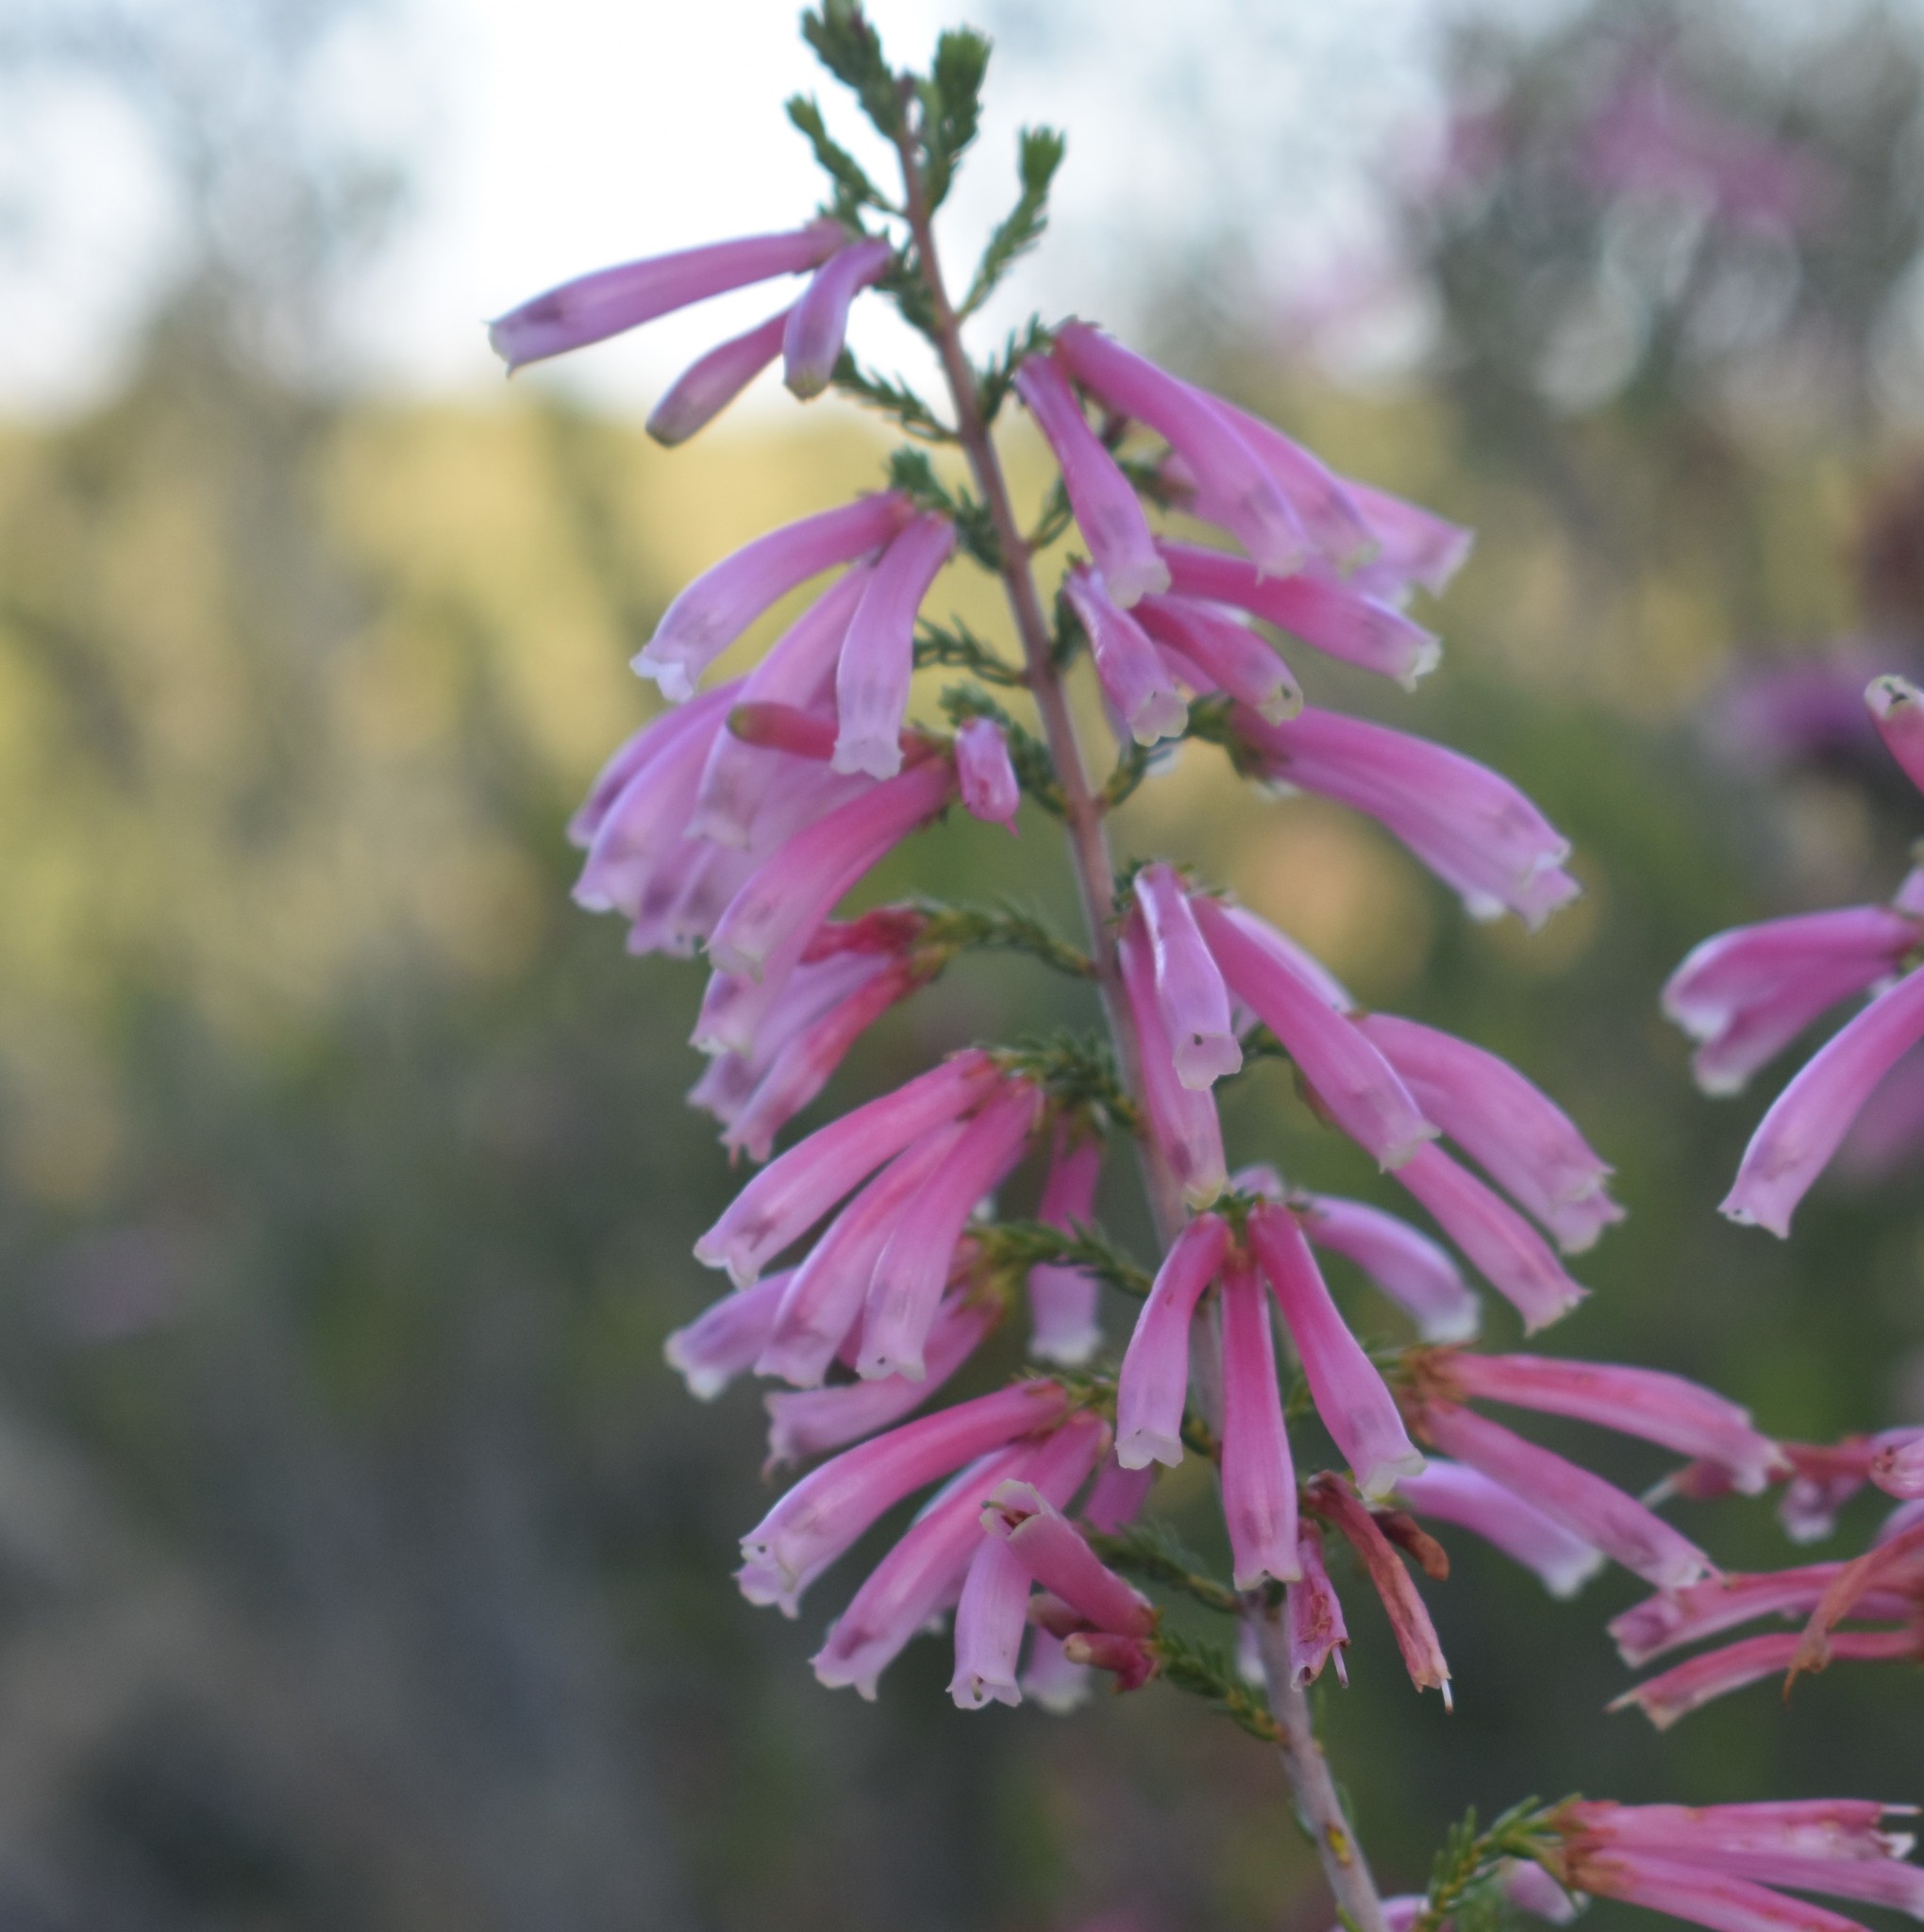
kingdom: Plantae
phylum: Tracheophyta
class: Magnoliopsida
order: Ericales
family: Ericaceae
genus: Erica
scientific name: Erica diaphana
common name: Heath
